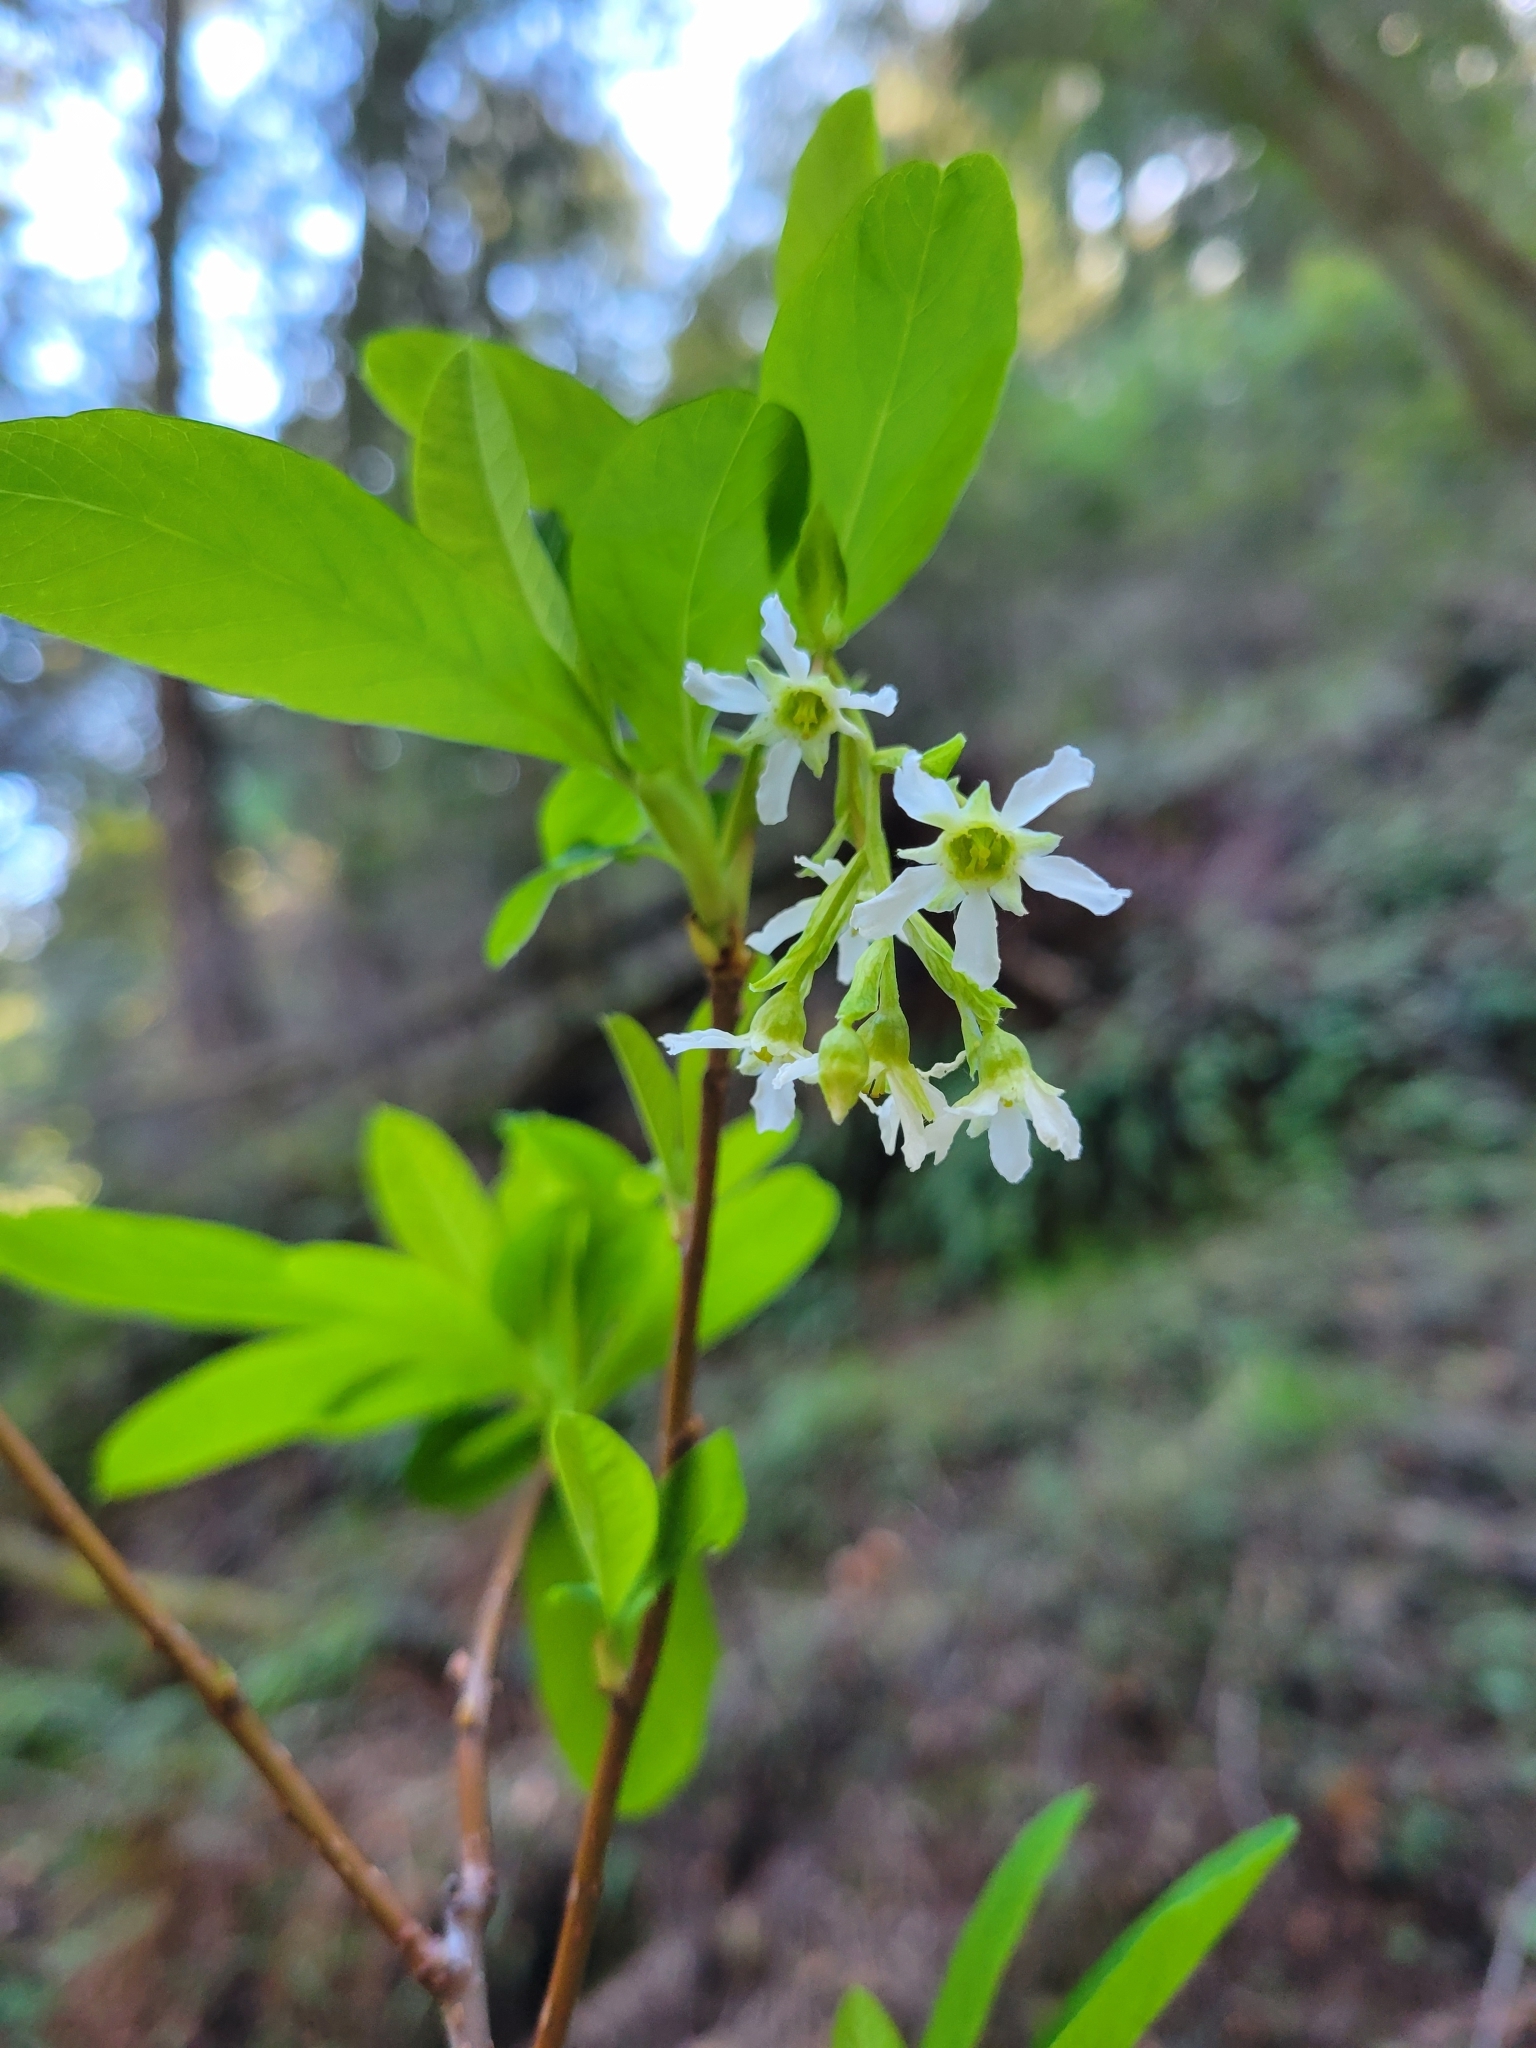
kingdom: Plantae
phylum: Tracheophyta
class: Magnoliopsida
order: Rosales
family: Rosaceae
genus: Oemleria
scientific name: Oemleria cerasiformis
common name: Osoberry
